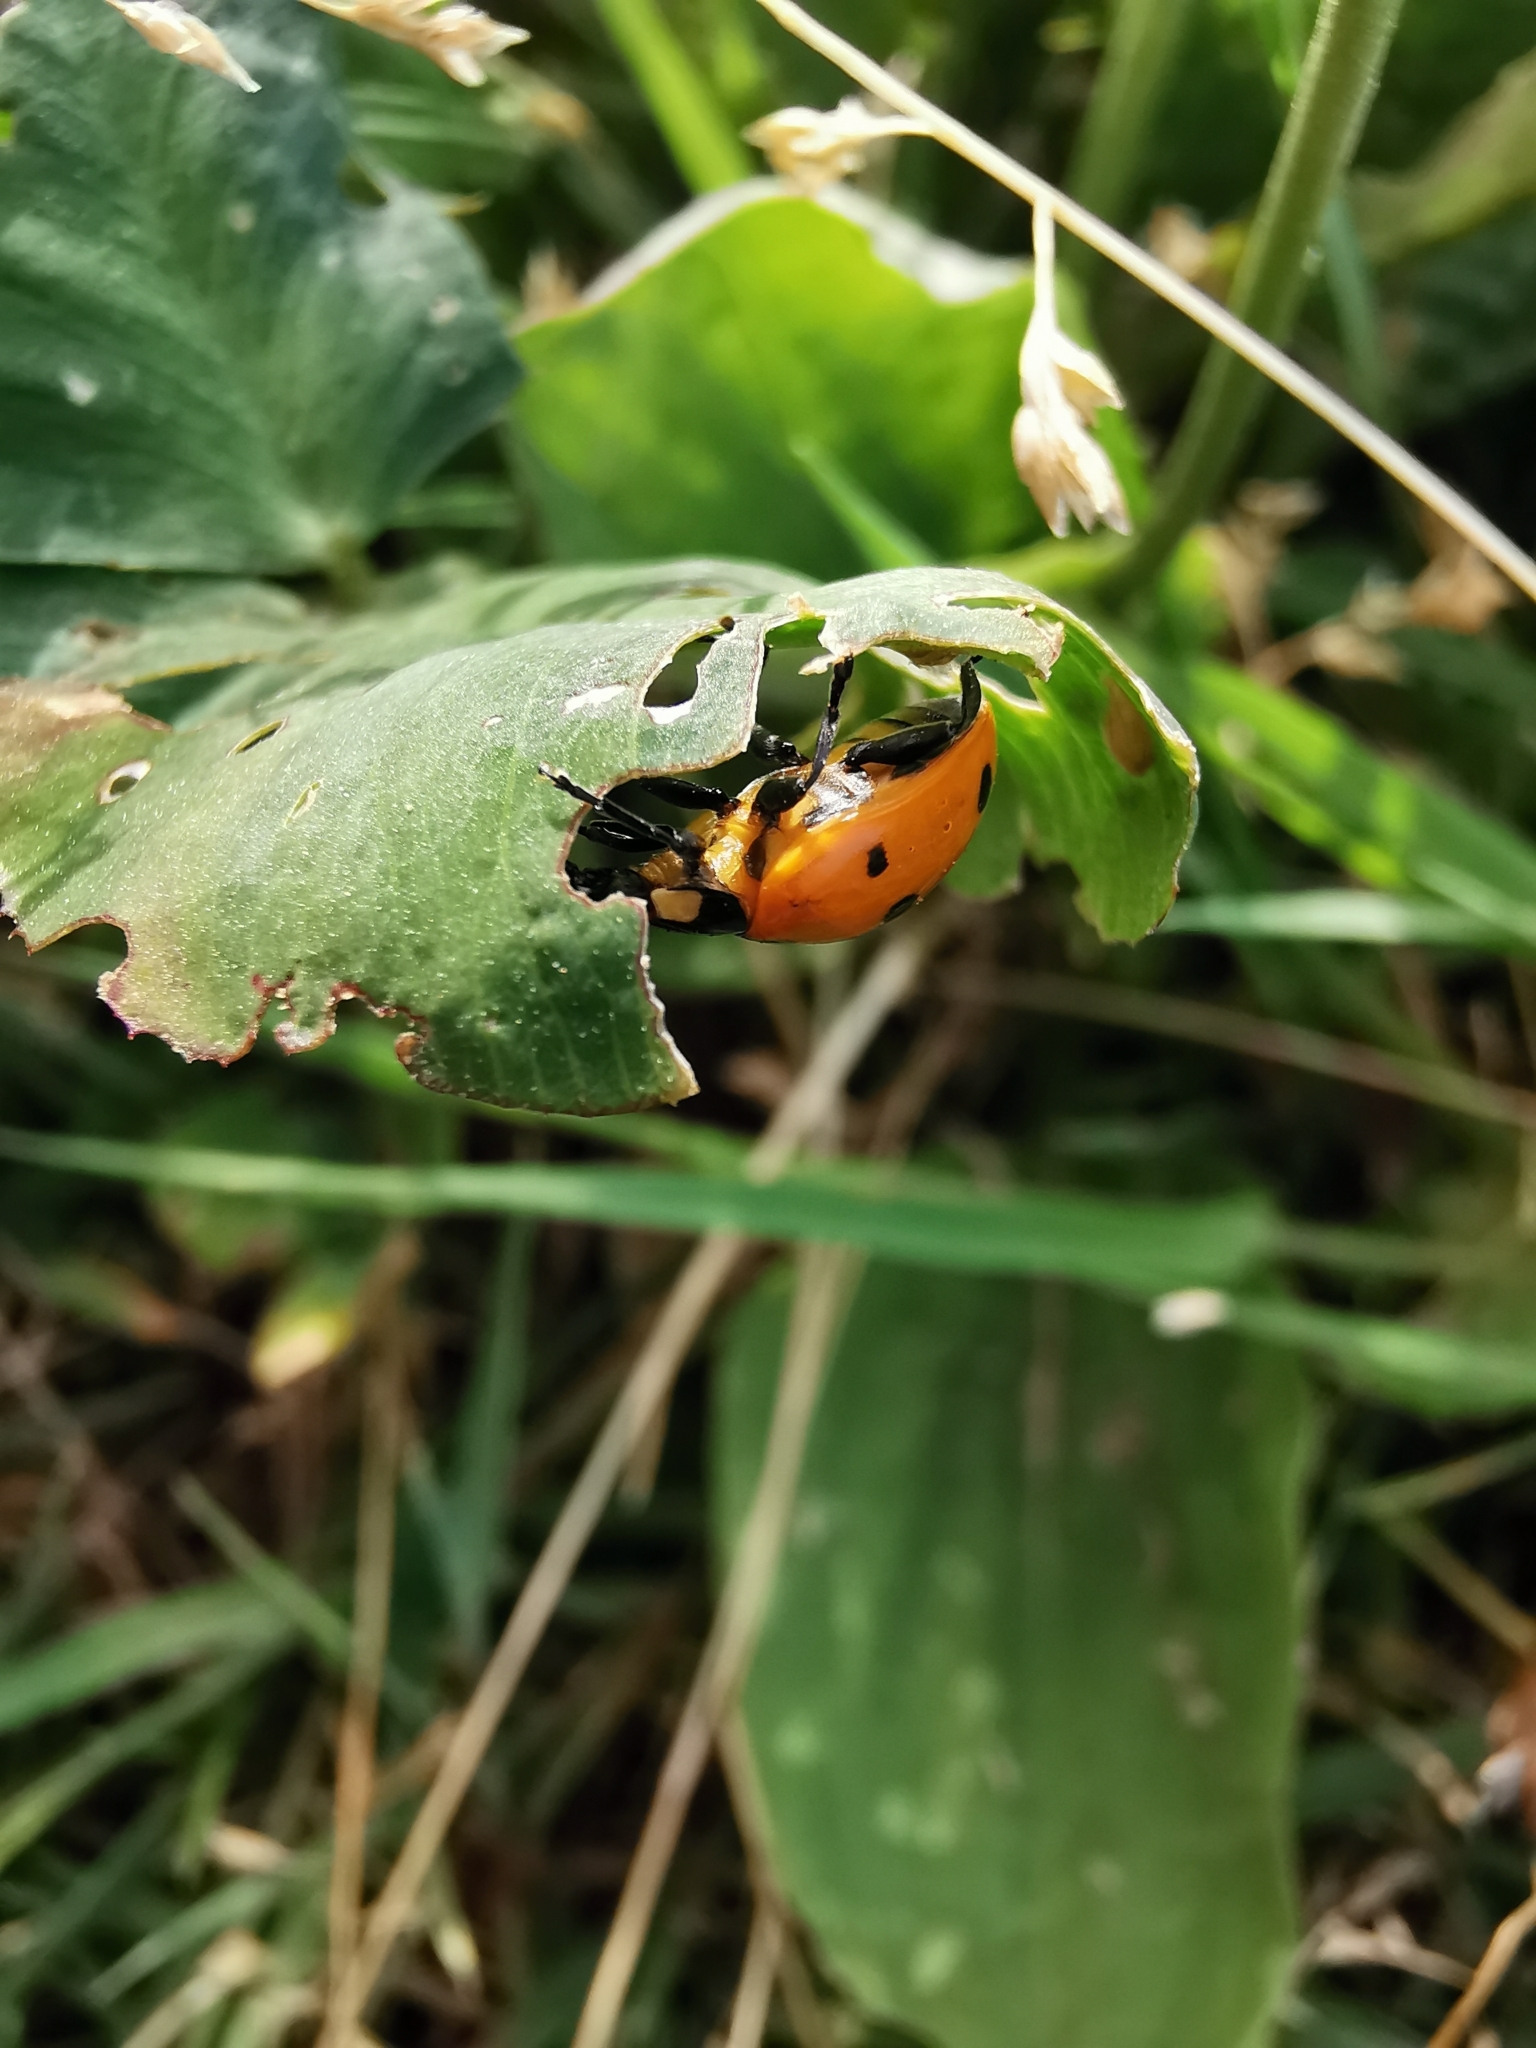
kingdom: Animalia
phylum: Arthropoda
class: Insecta
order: Coleoptera
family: Coccinellidae
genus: Coccinella
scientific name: Coccinella septempunctata
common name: Sevenspotted lady beetle
